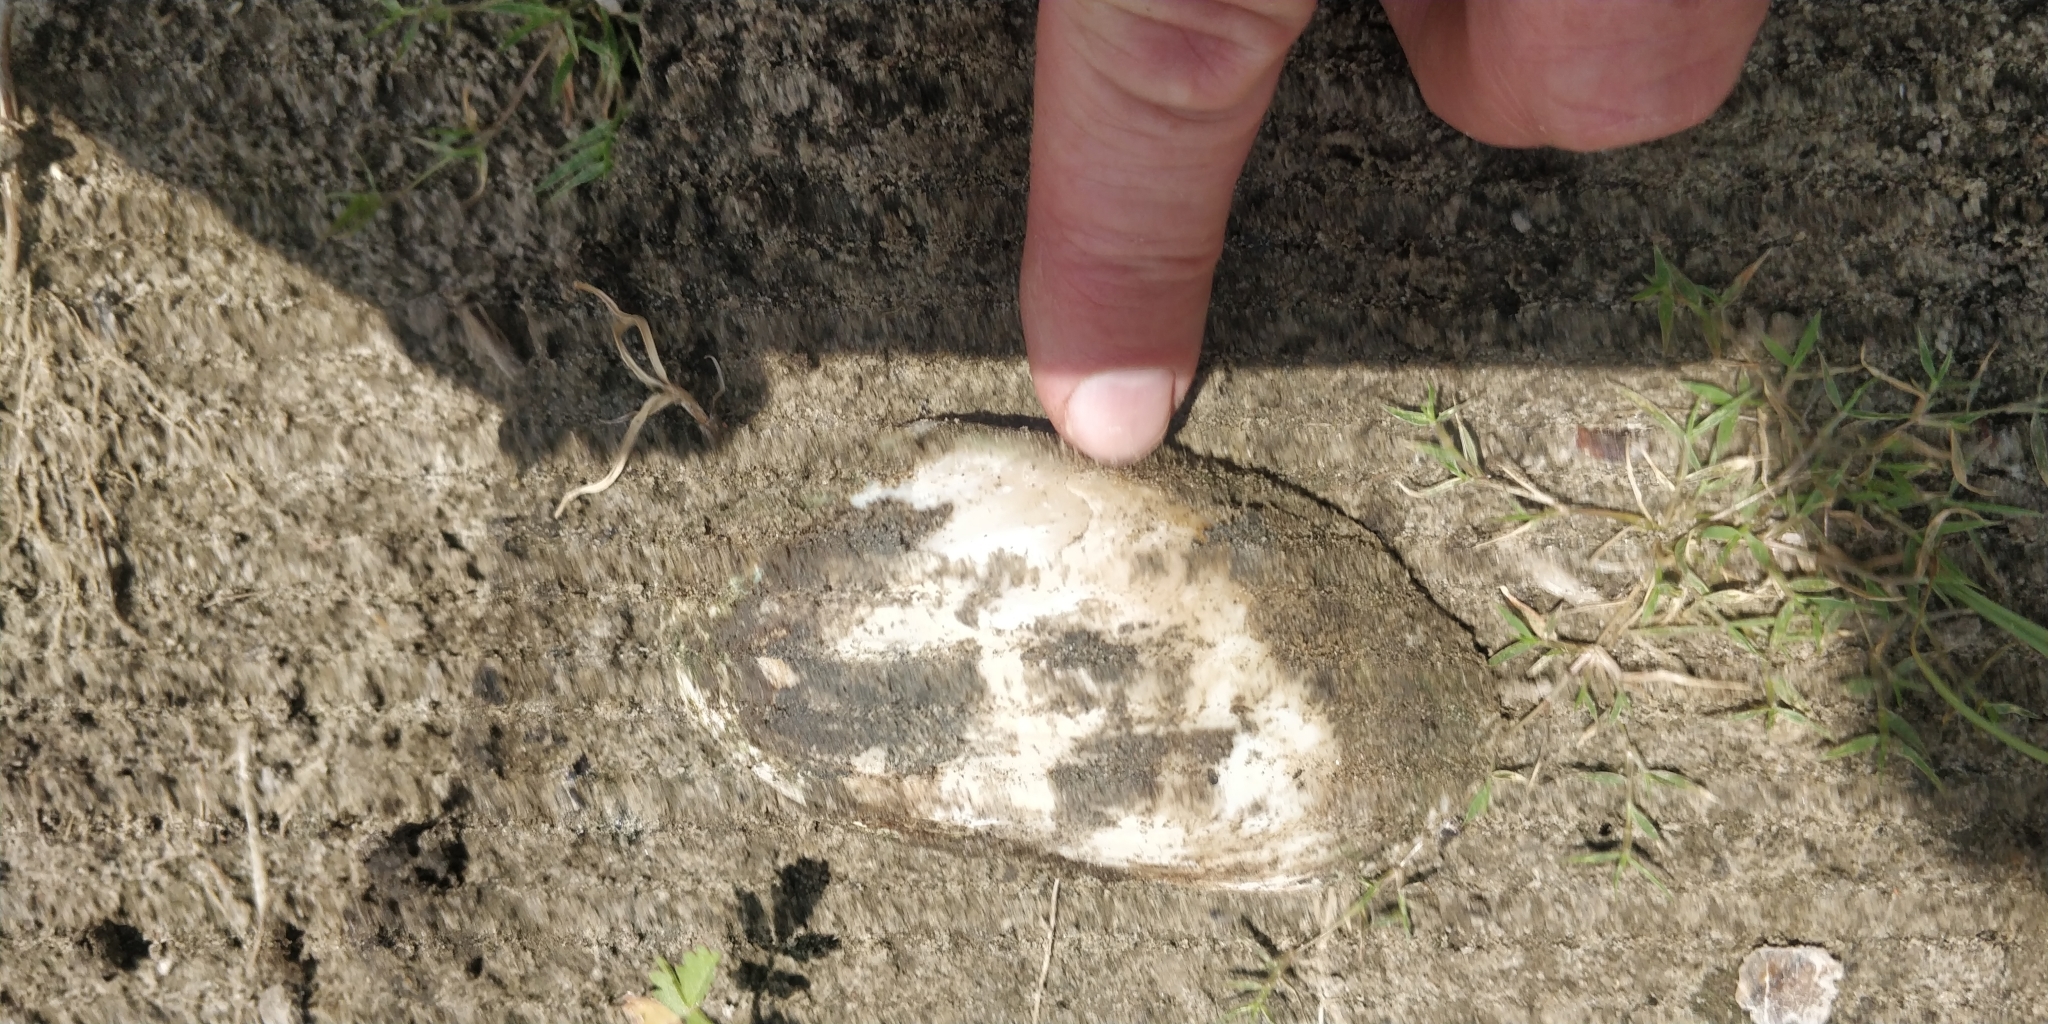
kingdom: Animalia
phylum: Mollusca
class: Bivalvia
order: Unionida
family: Unionidae
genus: Lampsilis
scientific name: Lampsilis siliquoidea
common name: Fatmucket
